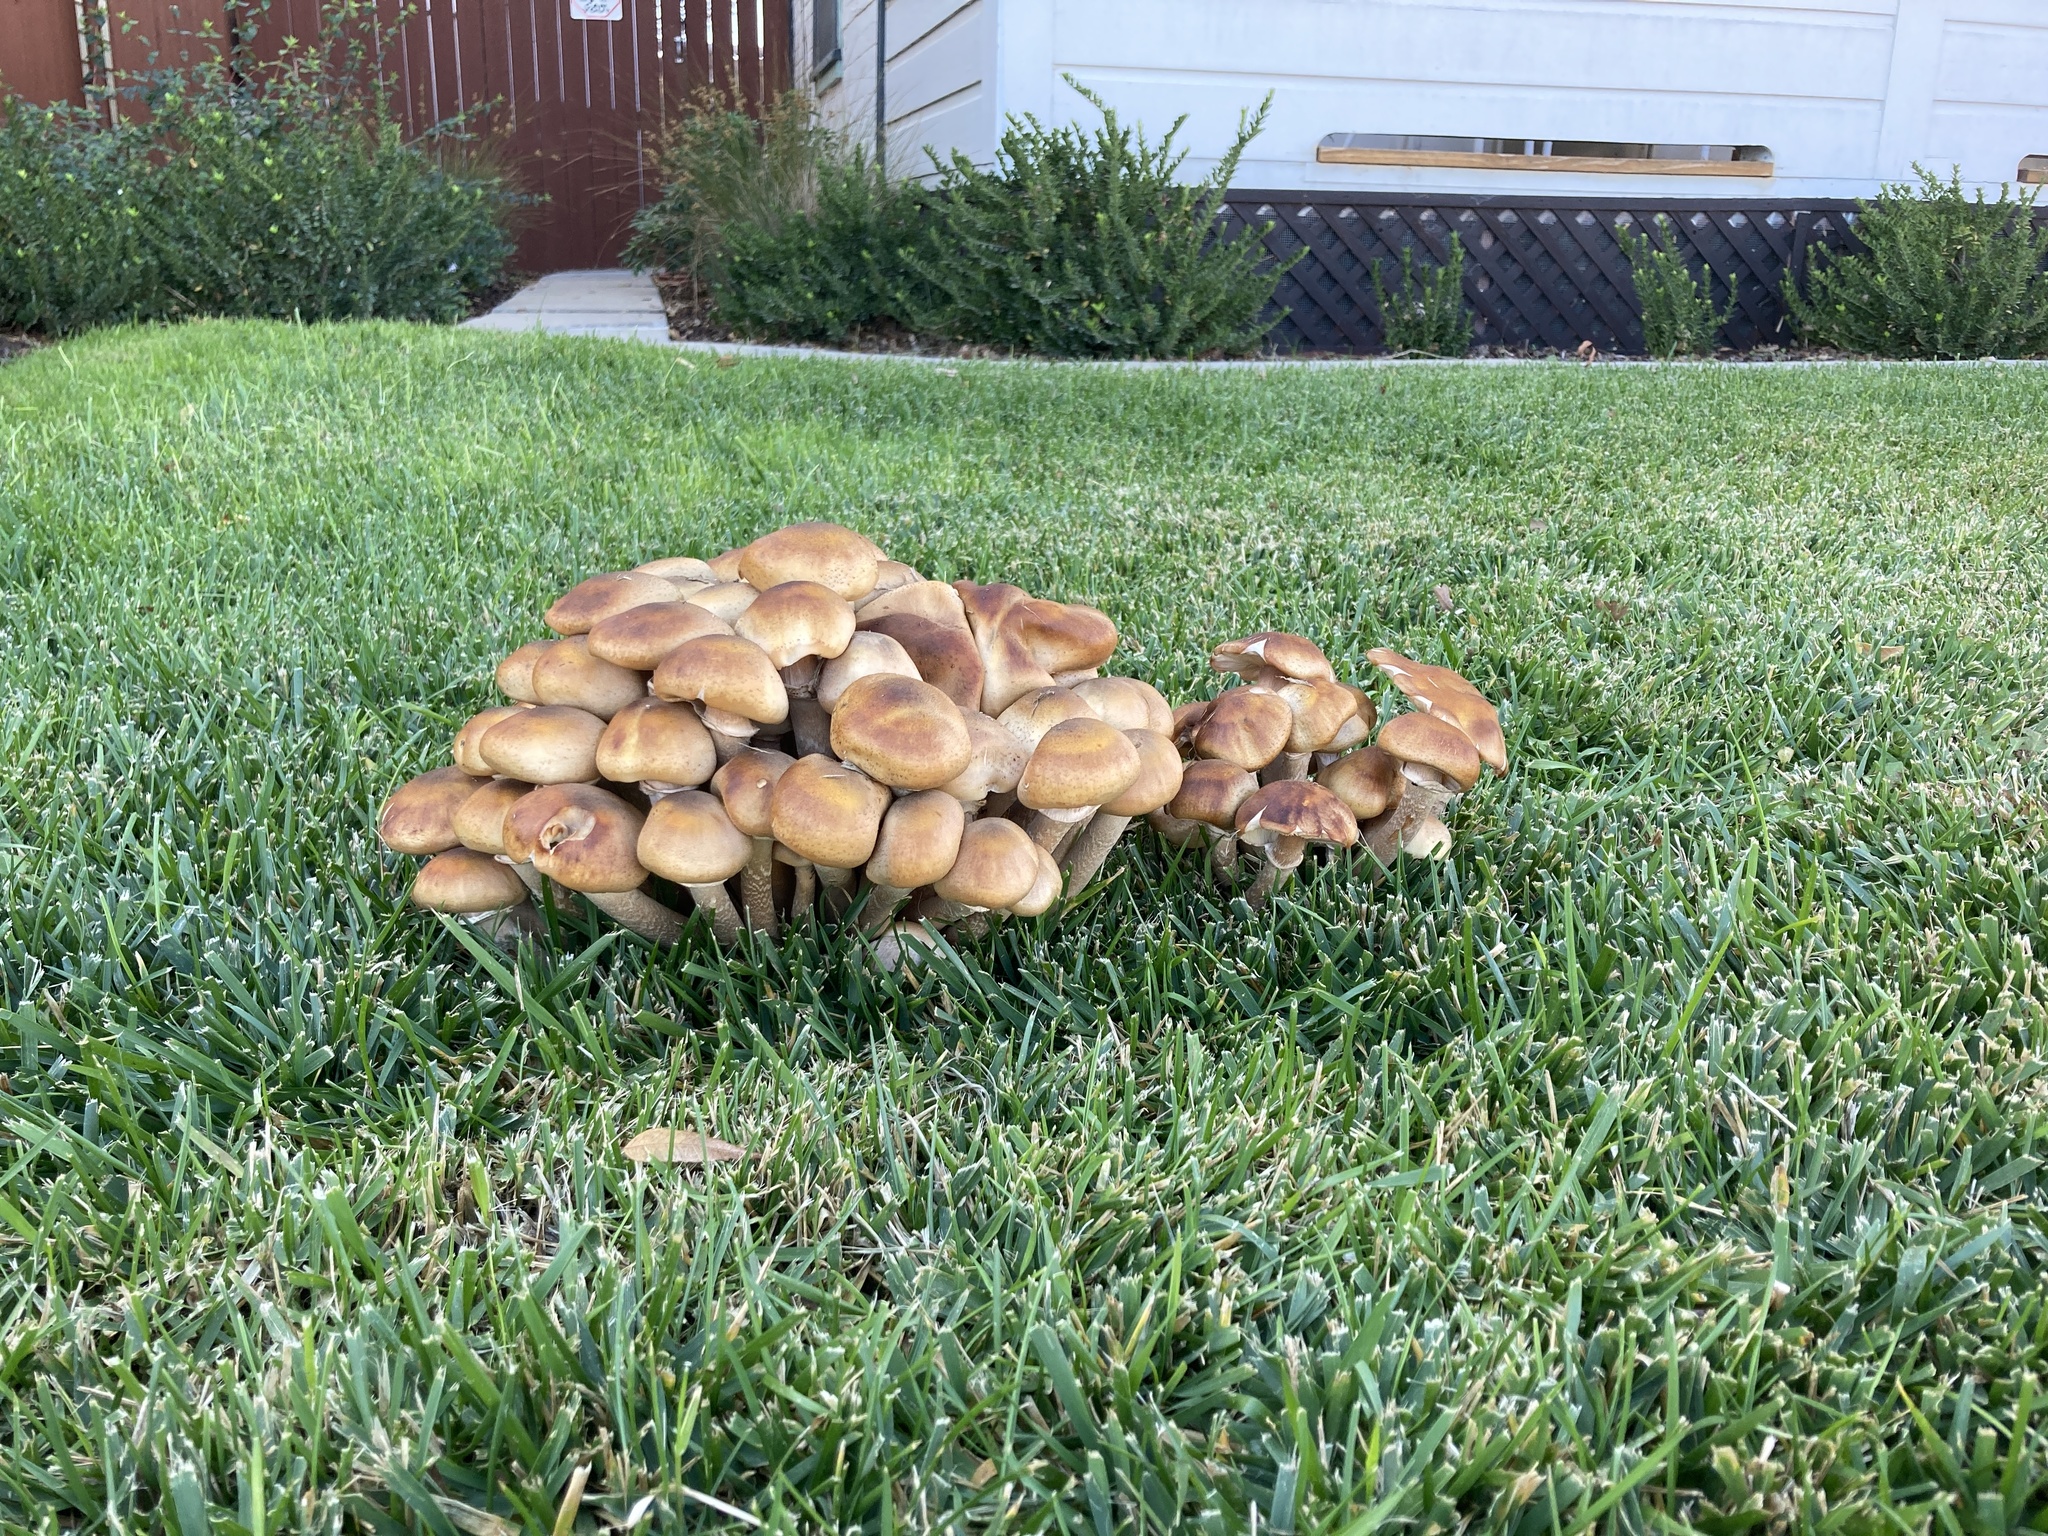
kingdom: Fungi
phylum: Basidiomycota
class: Agaricomycetes
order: Agaricales
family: Physalacriaceae
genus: Armillaria
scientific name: Armillaria mellea
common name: Honey fungus
